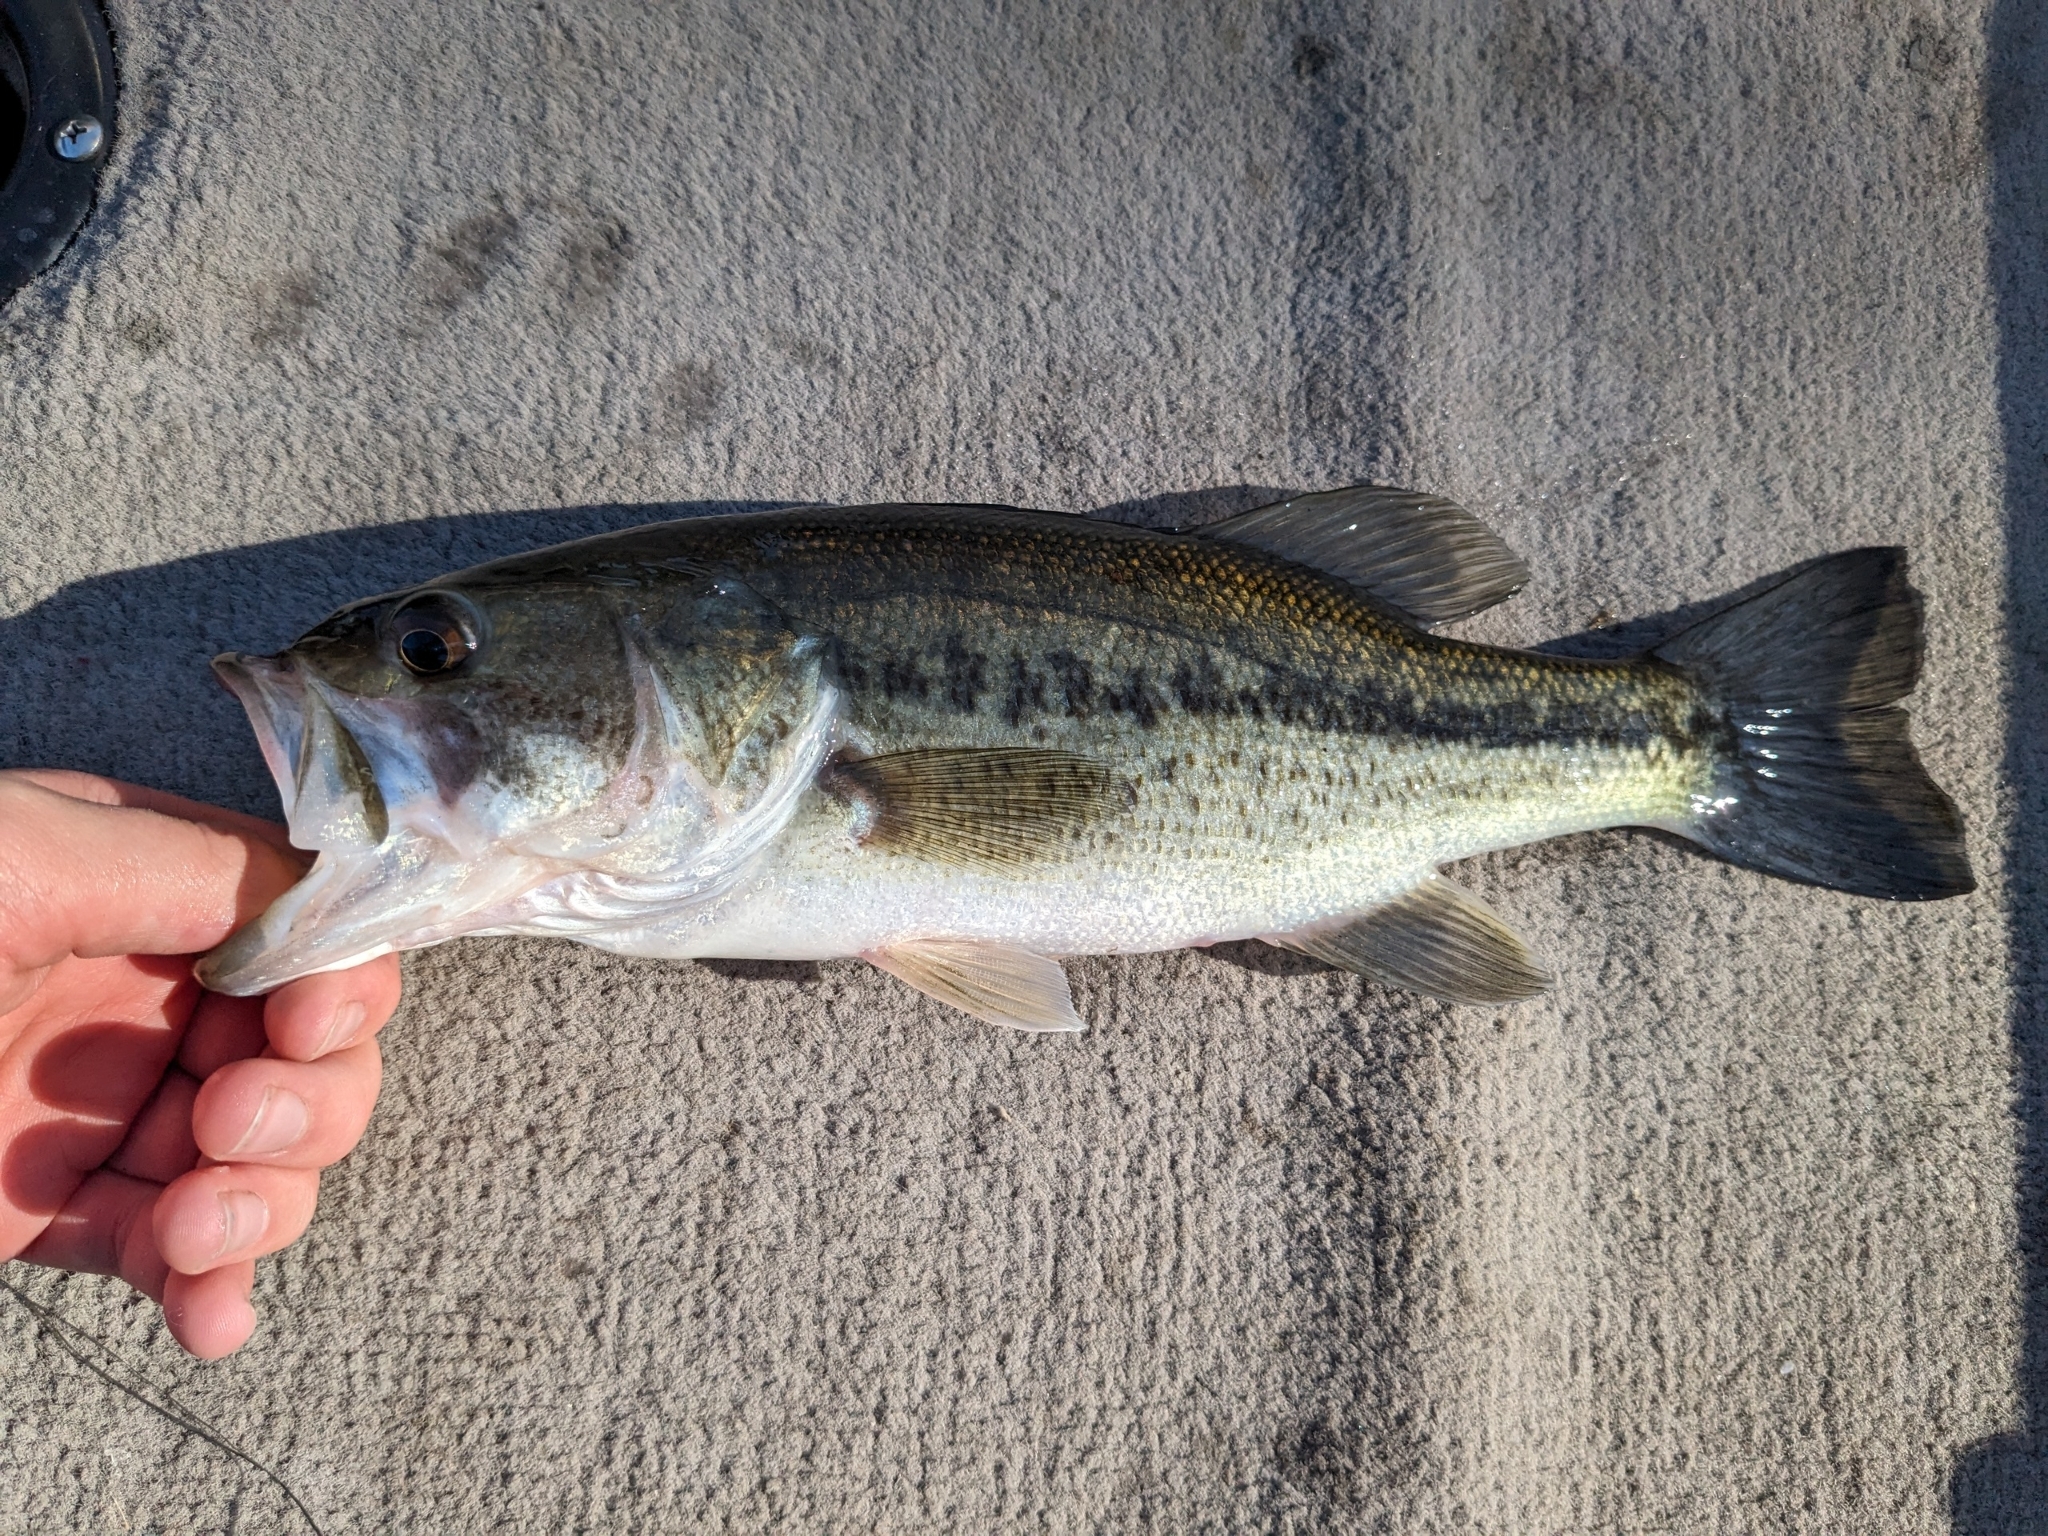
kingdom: Animalia
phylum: Chordata
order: Perciformes
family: Centrarchidae
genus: Micropterus
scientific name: Micropterus
